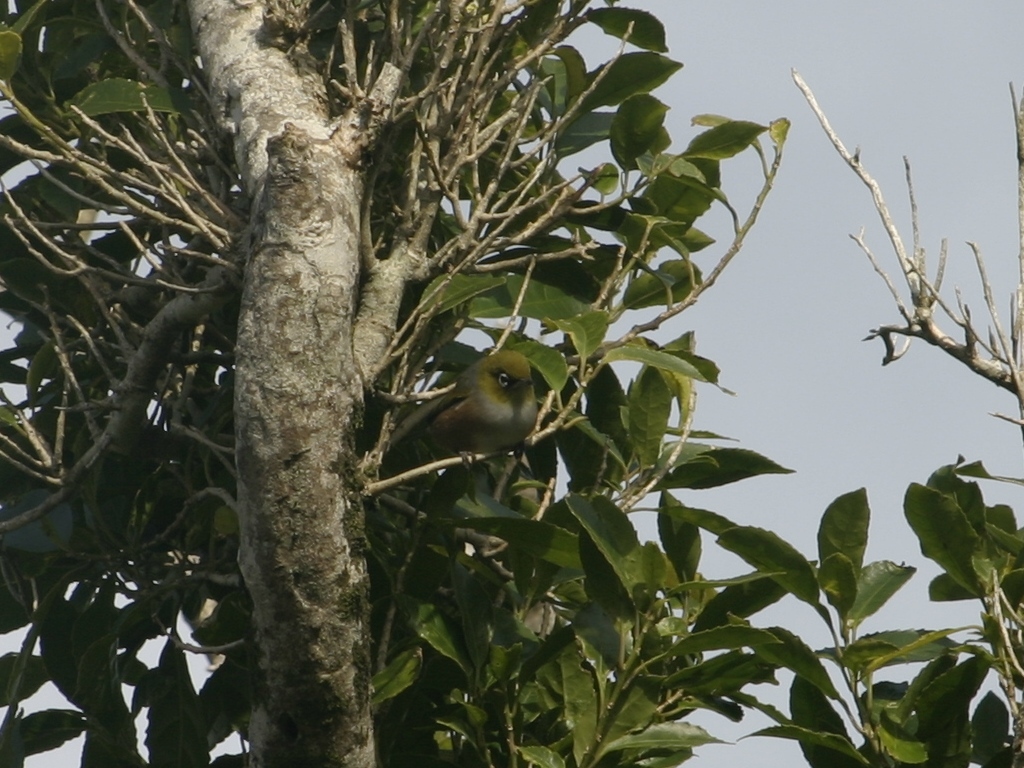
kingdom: Animalia
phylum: Chordata
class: Aves
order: Passeriformes
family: Zosteropidae
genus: Zosterops
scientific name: Zosterops lateralis
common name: Silvereye
